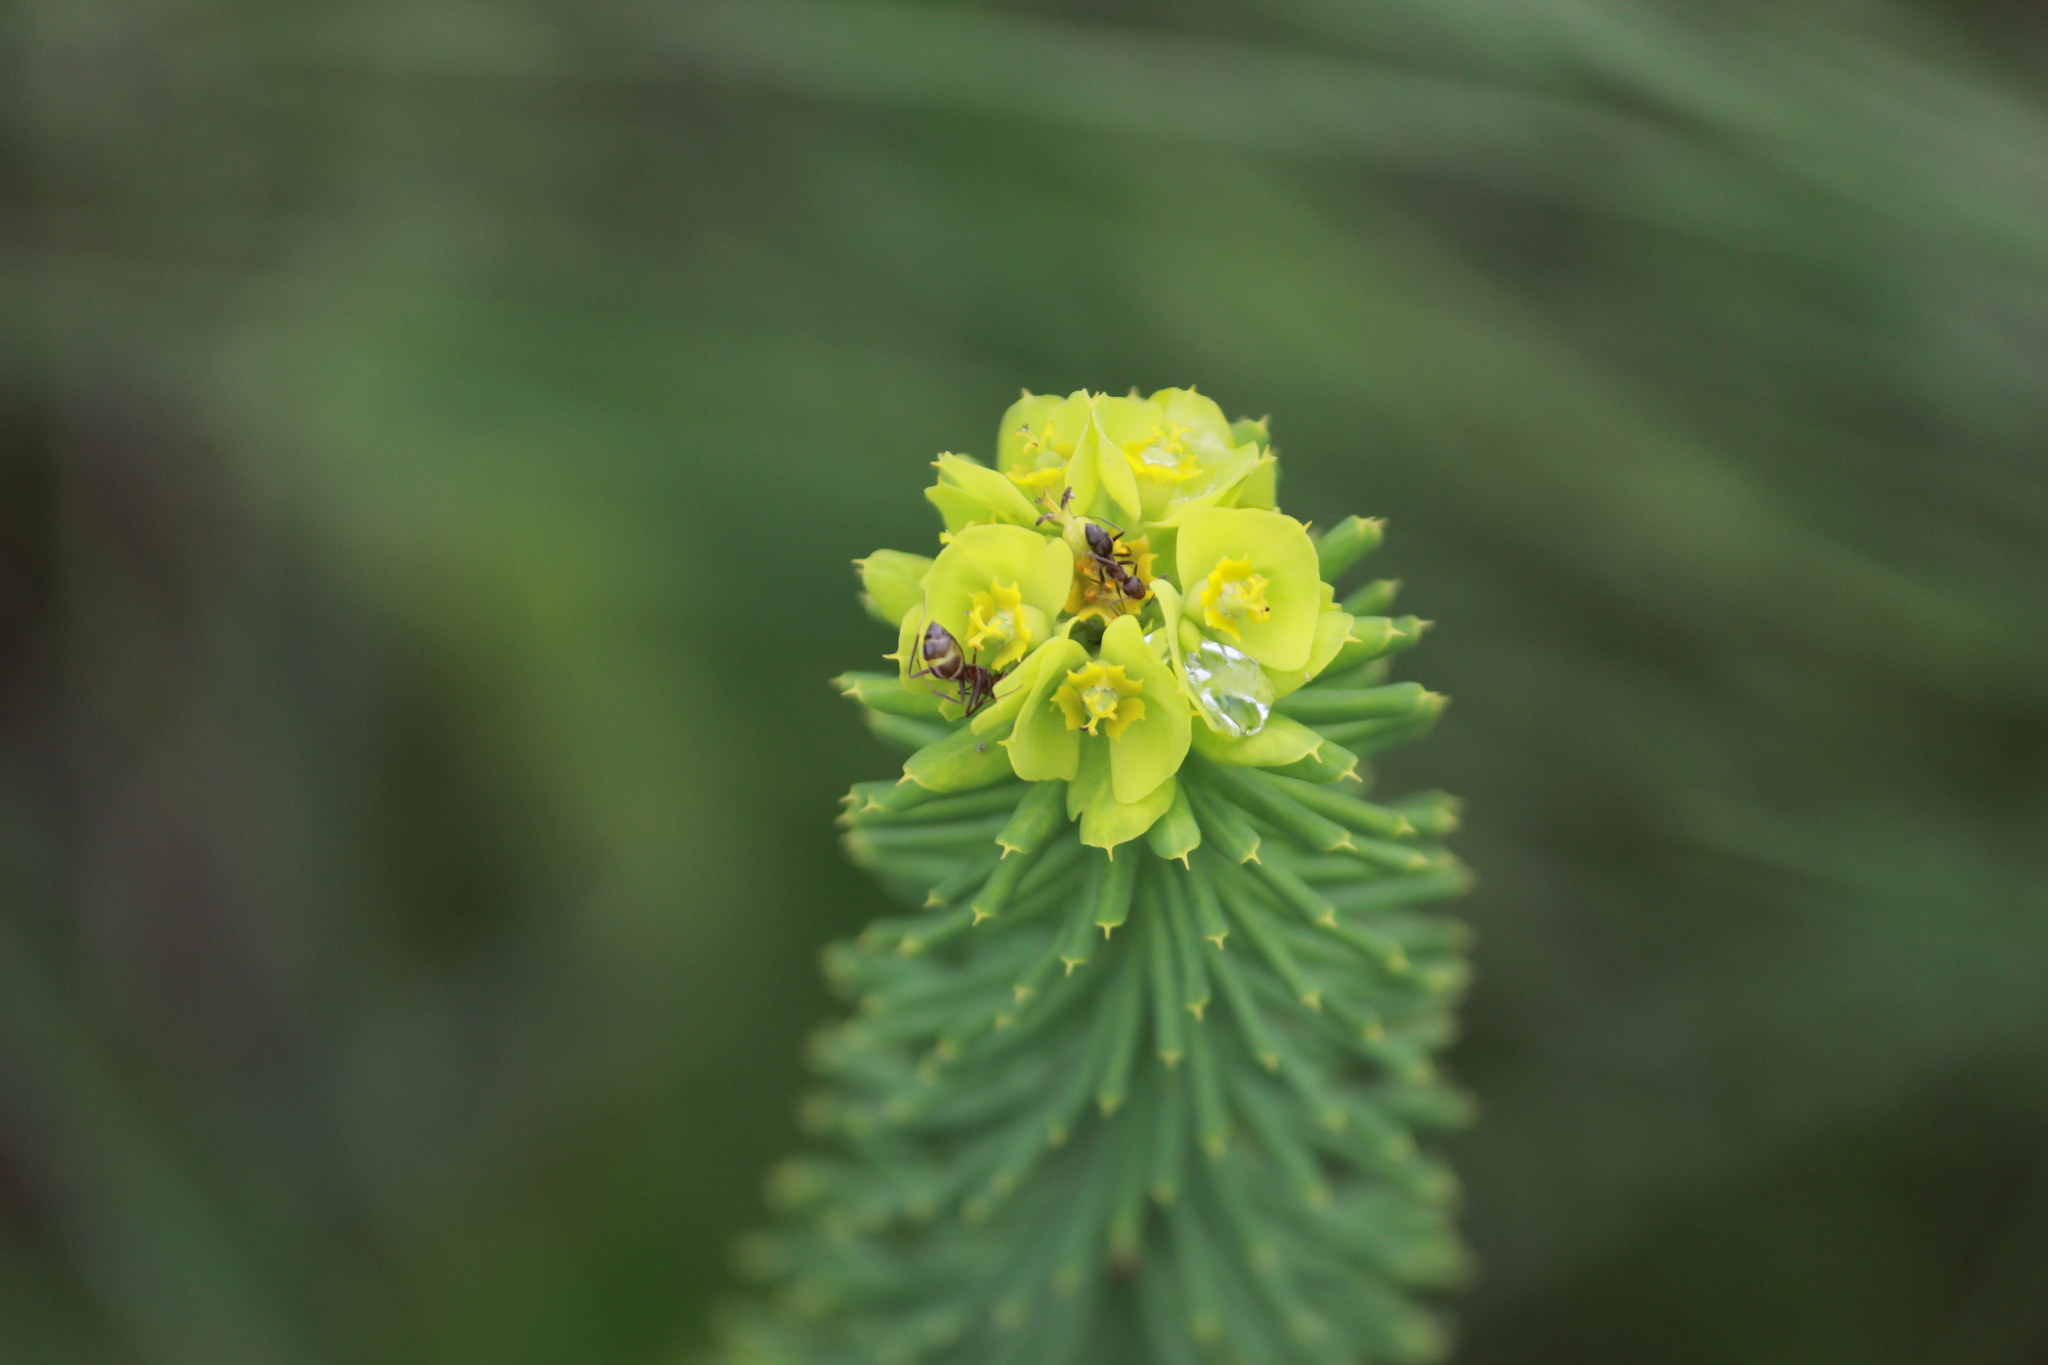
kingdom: Plantae
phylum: Tracheophyta
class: Magnoliopsida
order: Malpighiales
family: Euphorbiaceae
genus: Euphorbia
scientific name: Euphorbia natalensis
